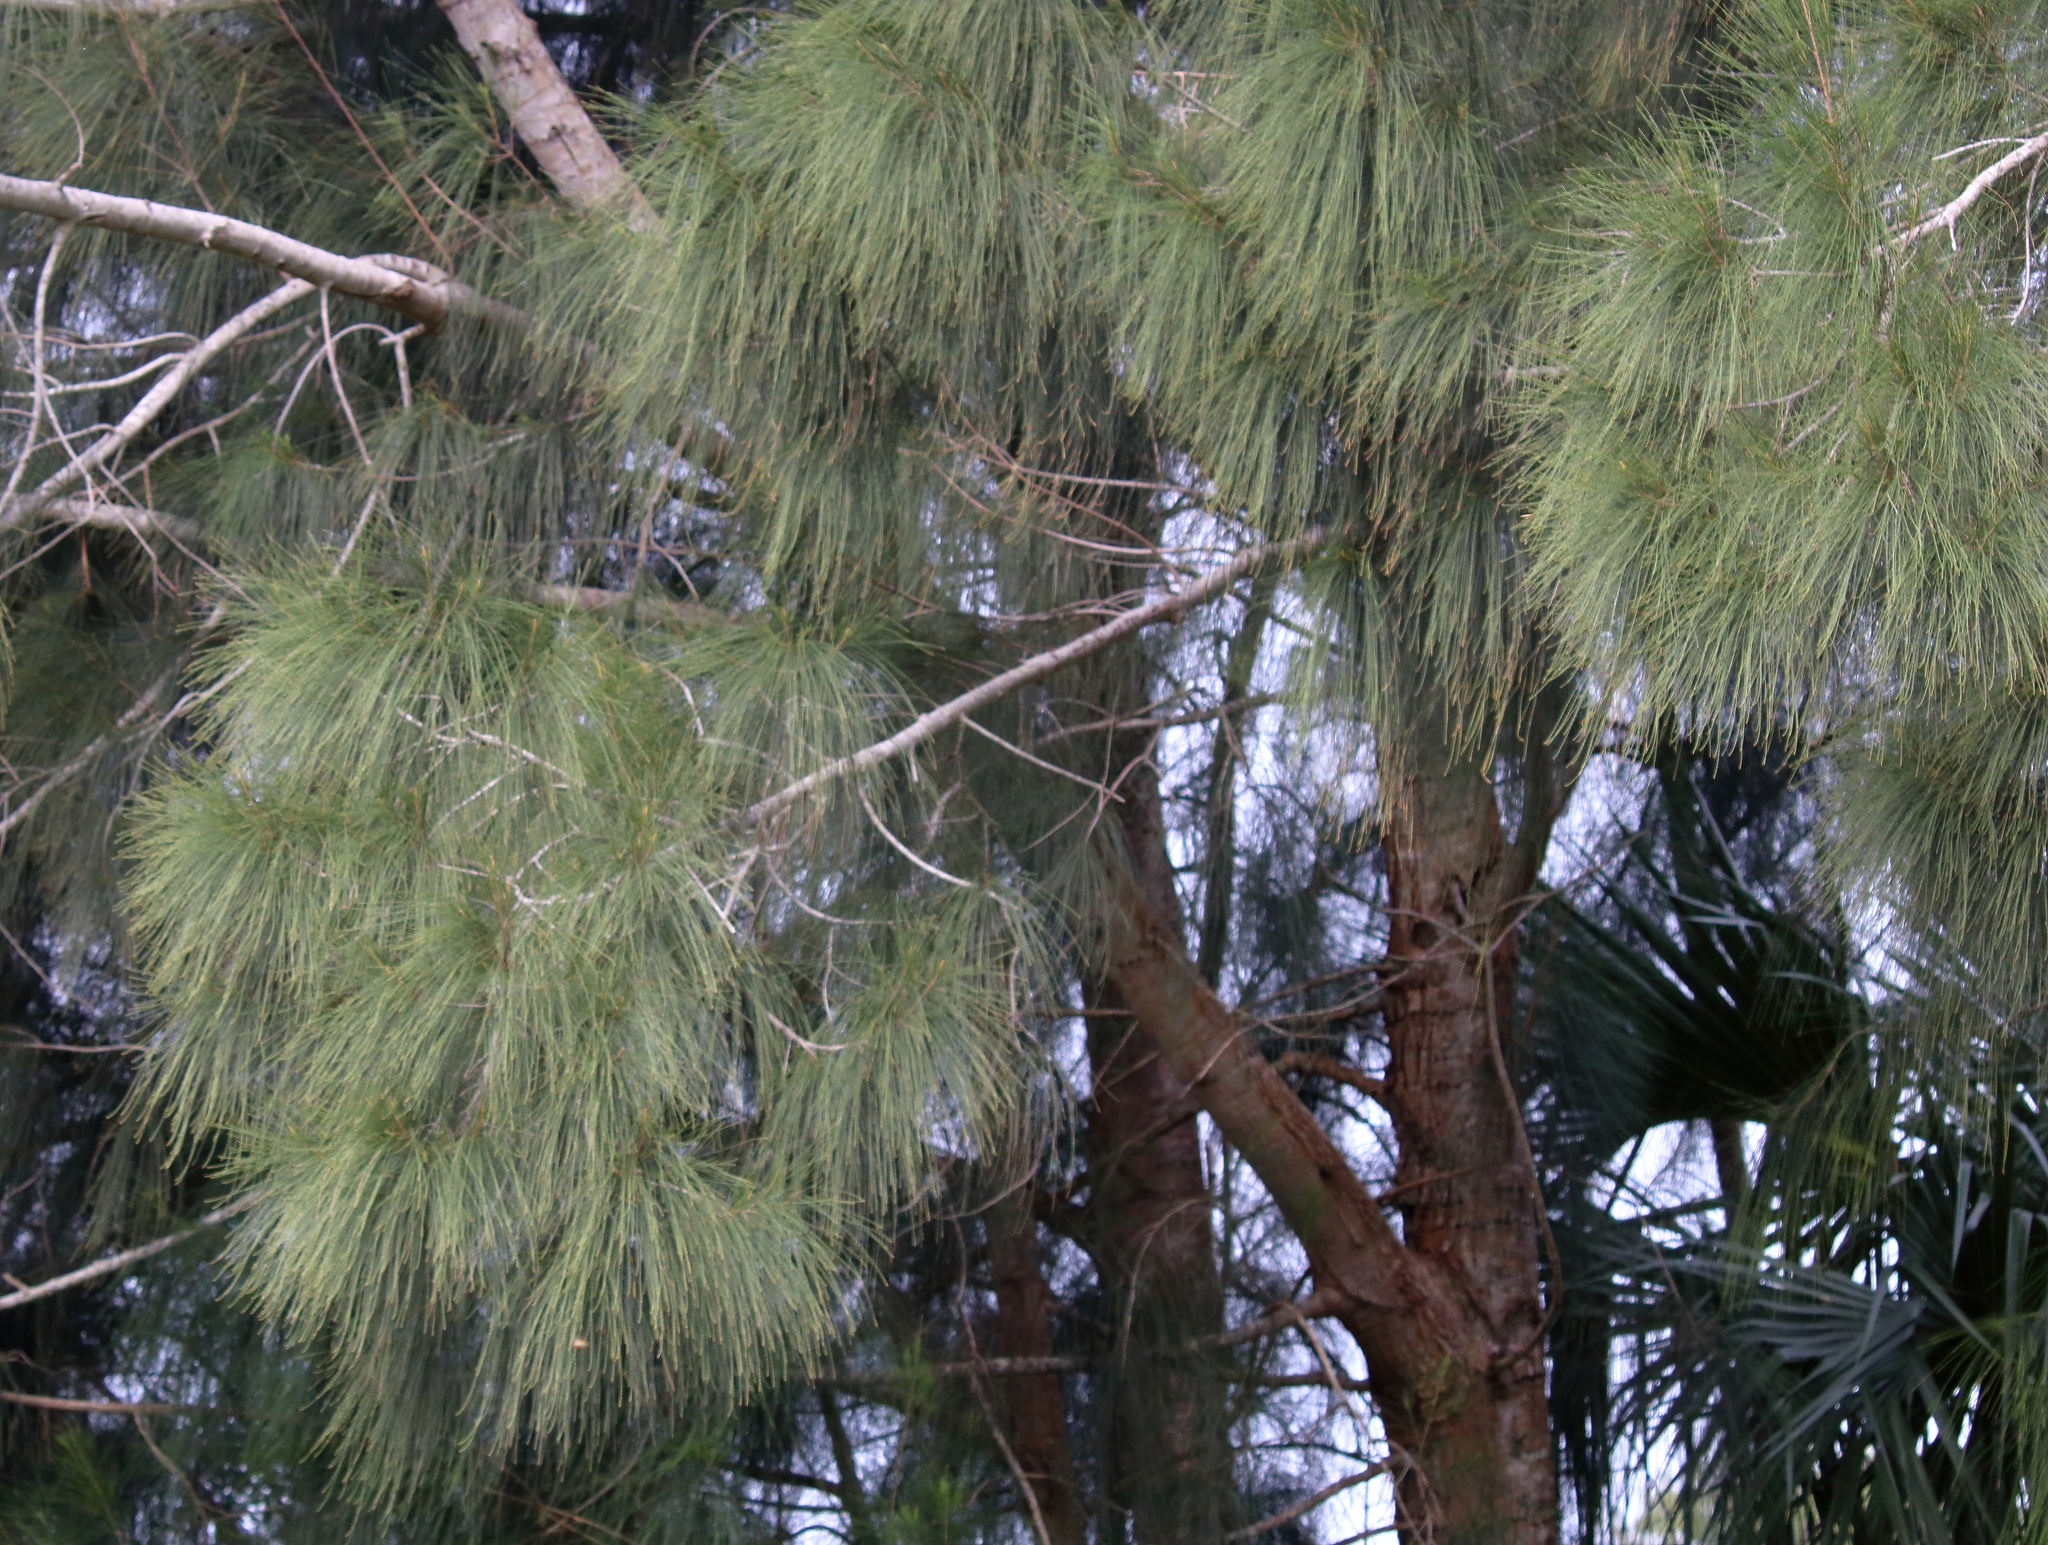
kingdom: Plantae
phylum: Tracheophyta
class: Magnoliopsida
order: Fagales
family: Casuarinaceae
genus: Casuarina
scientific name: Casuarina glauca
